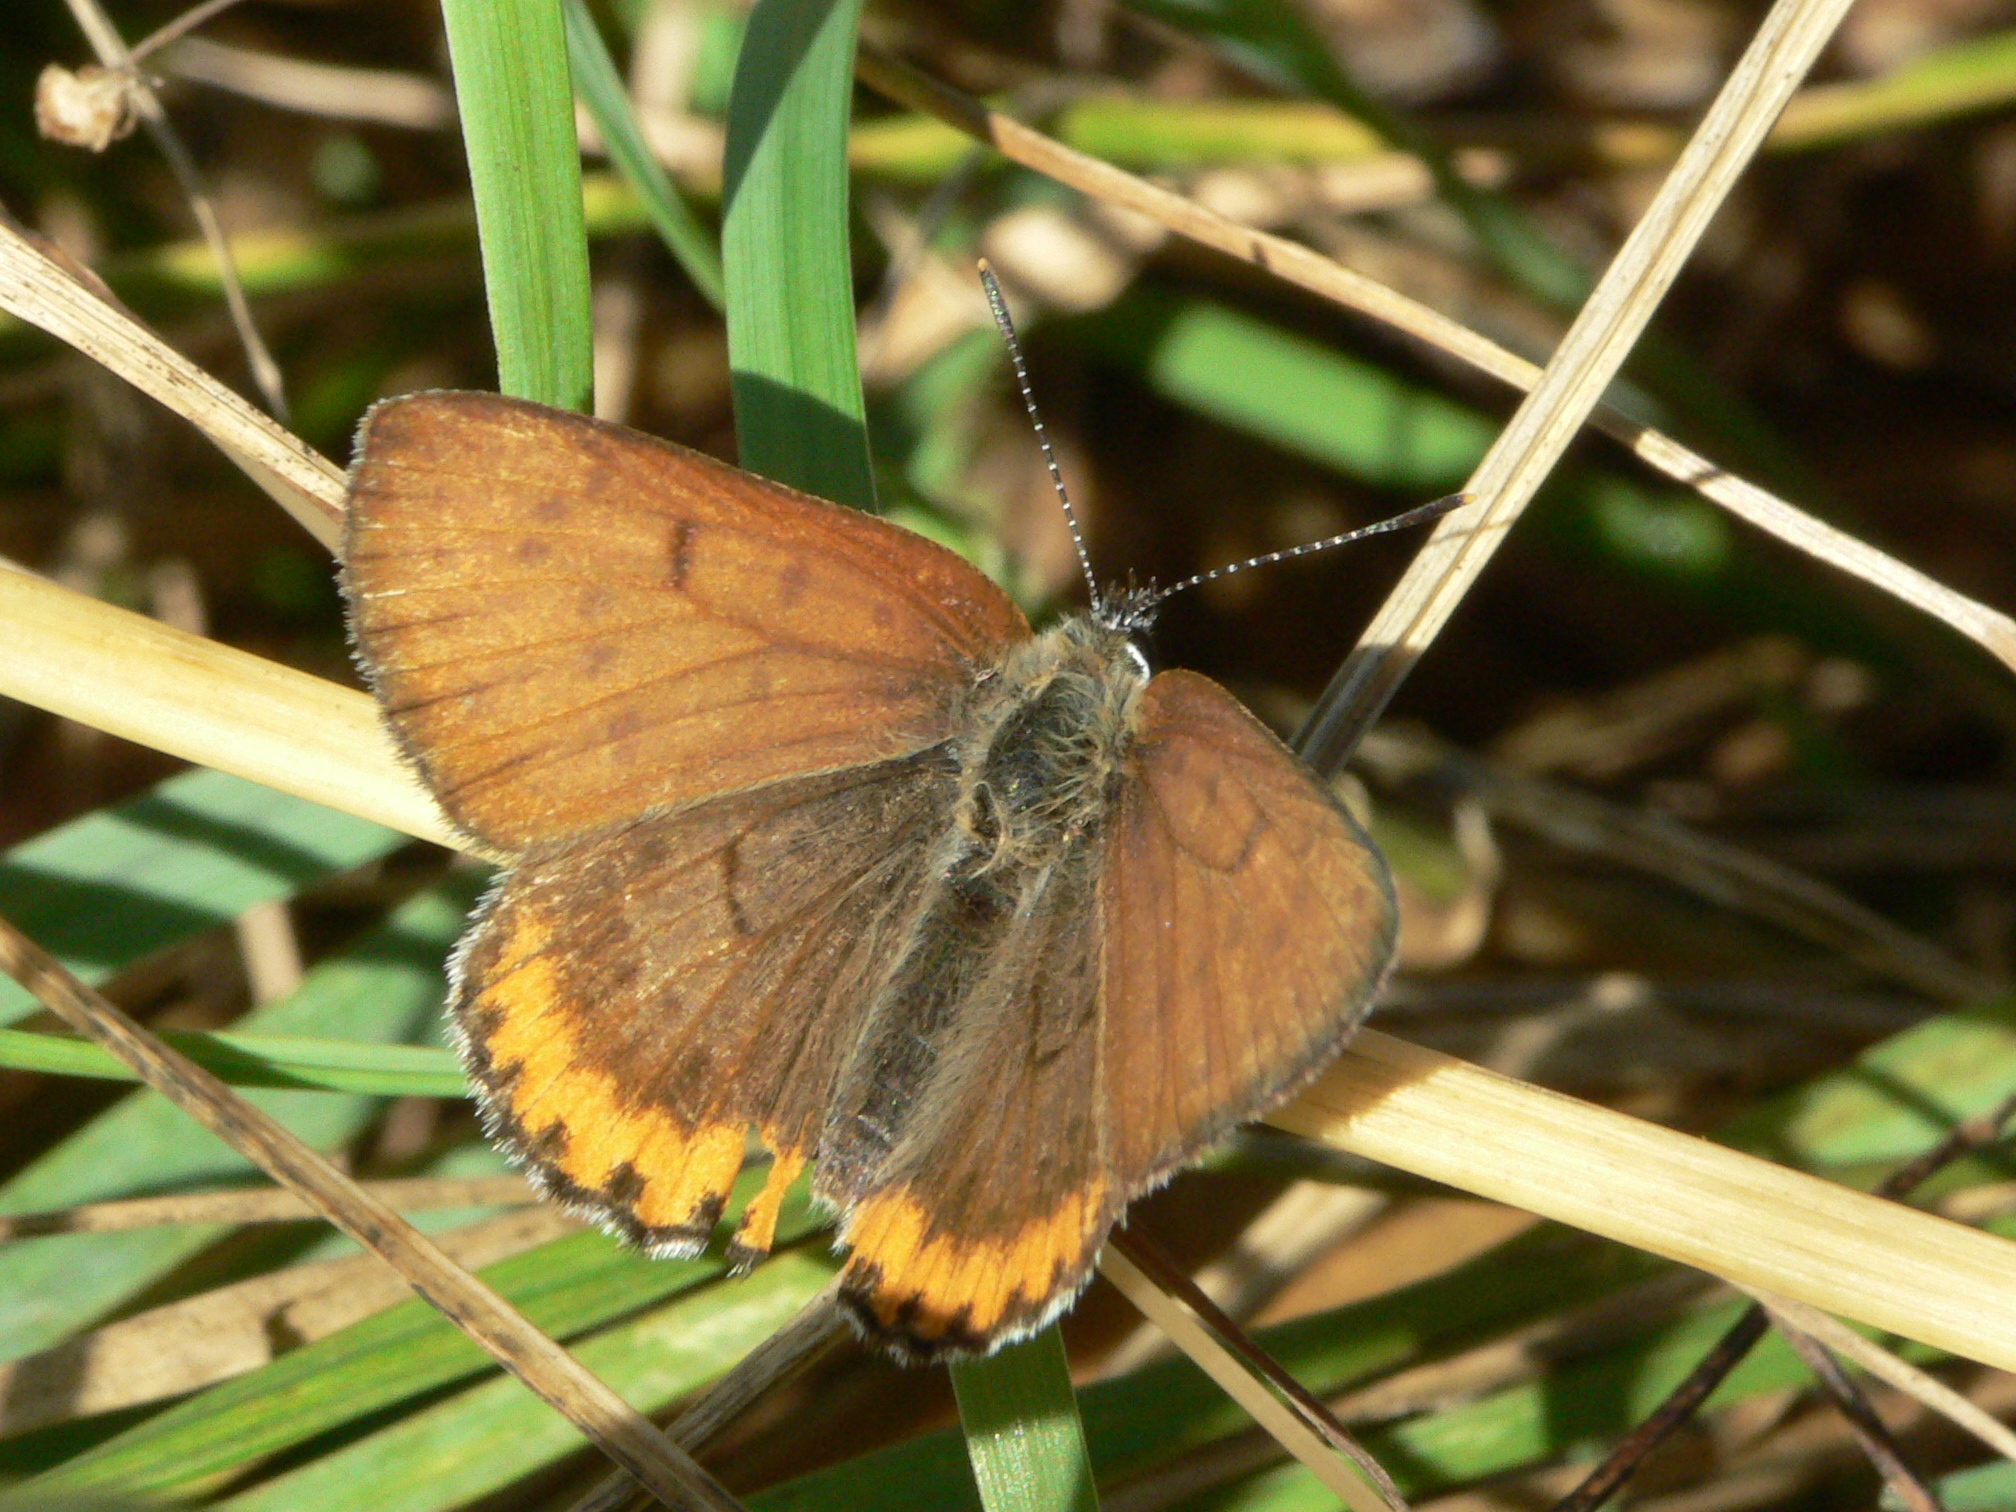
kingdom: Animalia
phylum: Arthropoda
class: Insecta
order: Lepidoptera
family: Lycaenidae
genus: Tharsalea
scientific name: Tharsalea hyllus
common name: Bronze copper
